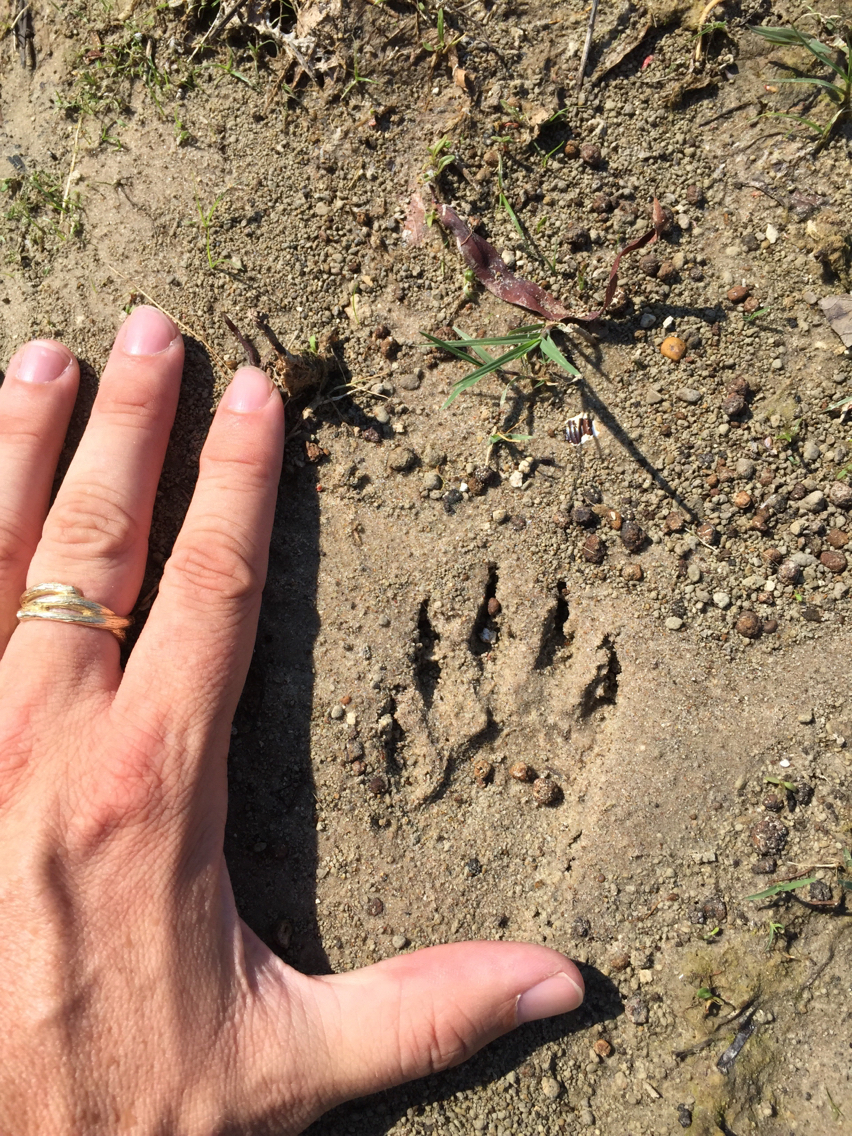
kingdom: Animalia
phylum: Chordata
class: Mammalia
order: Carnivora
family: Procyonidae
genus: Procyon
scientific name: Procyon lotor
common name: Raccoon
